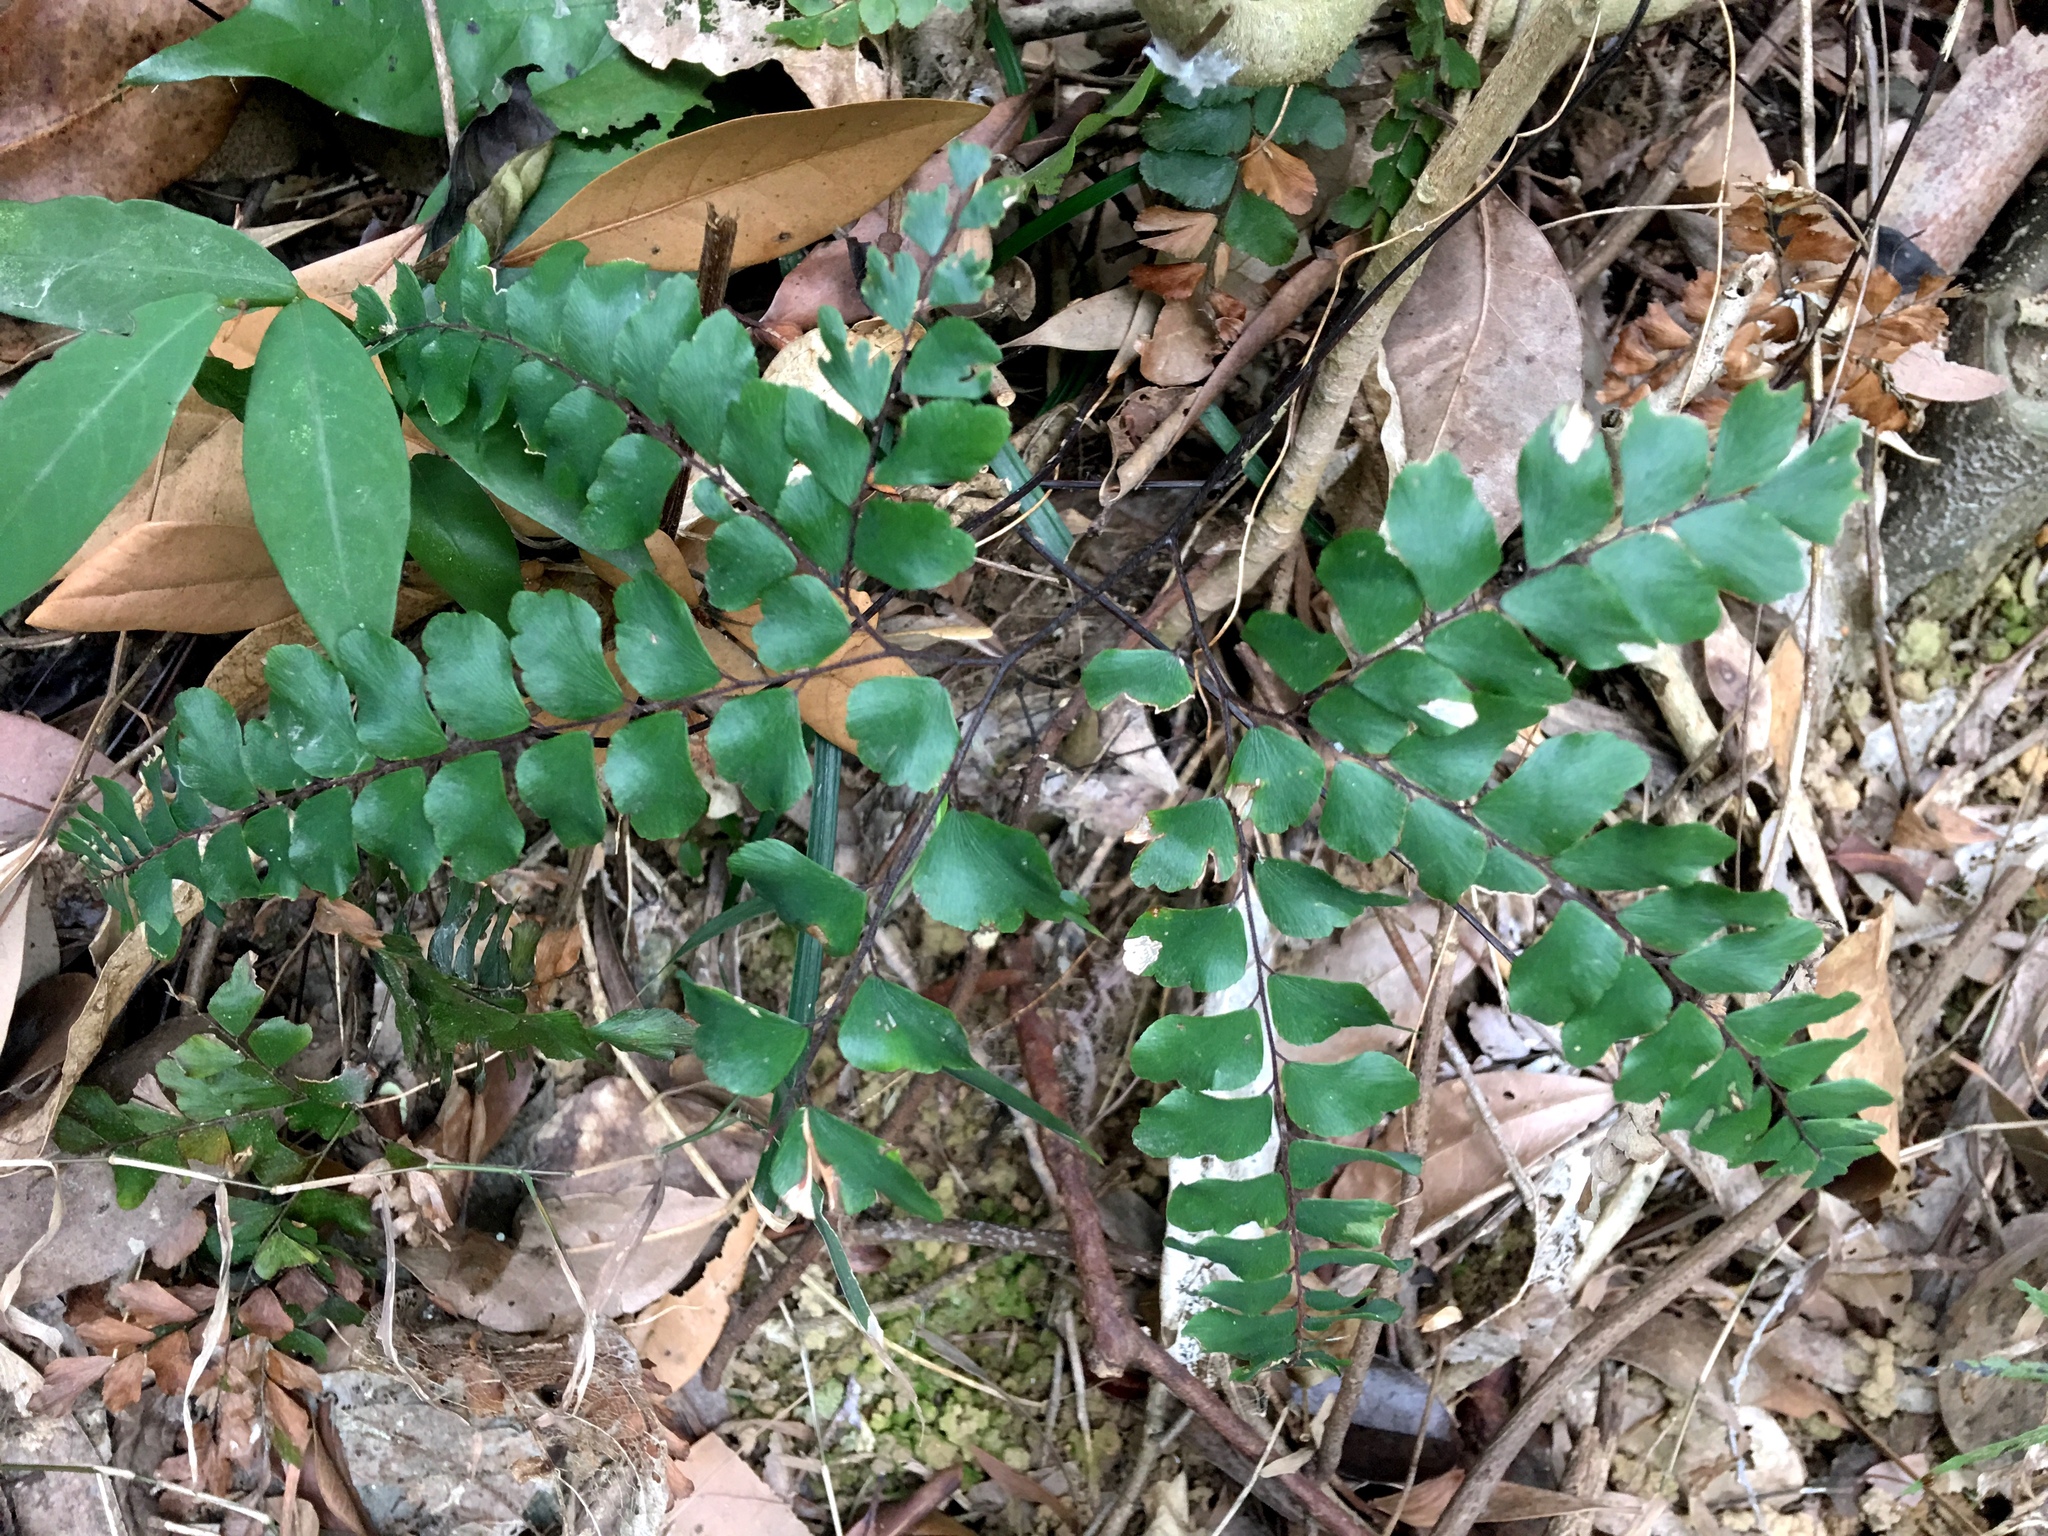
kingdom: Plantae
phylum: Tracheophyta
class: Polypodiopsida
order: Polypodiales
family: Pteridaceae
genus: Adiantum
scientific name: Adiantum flabellulatum
